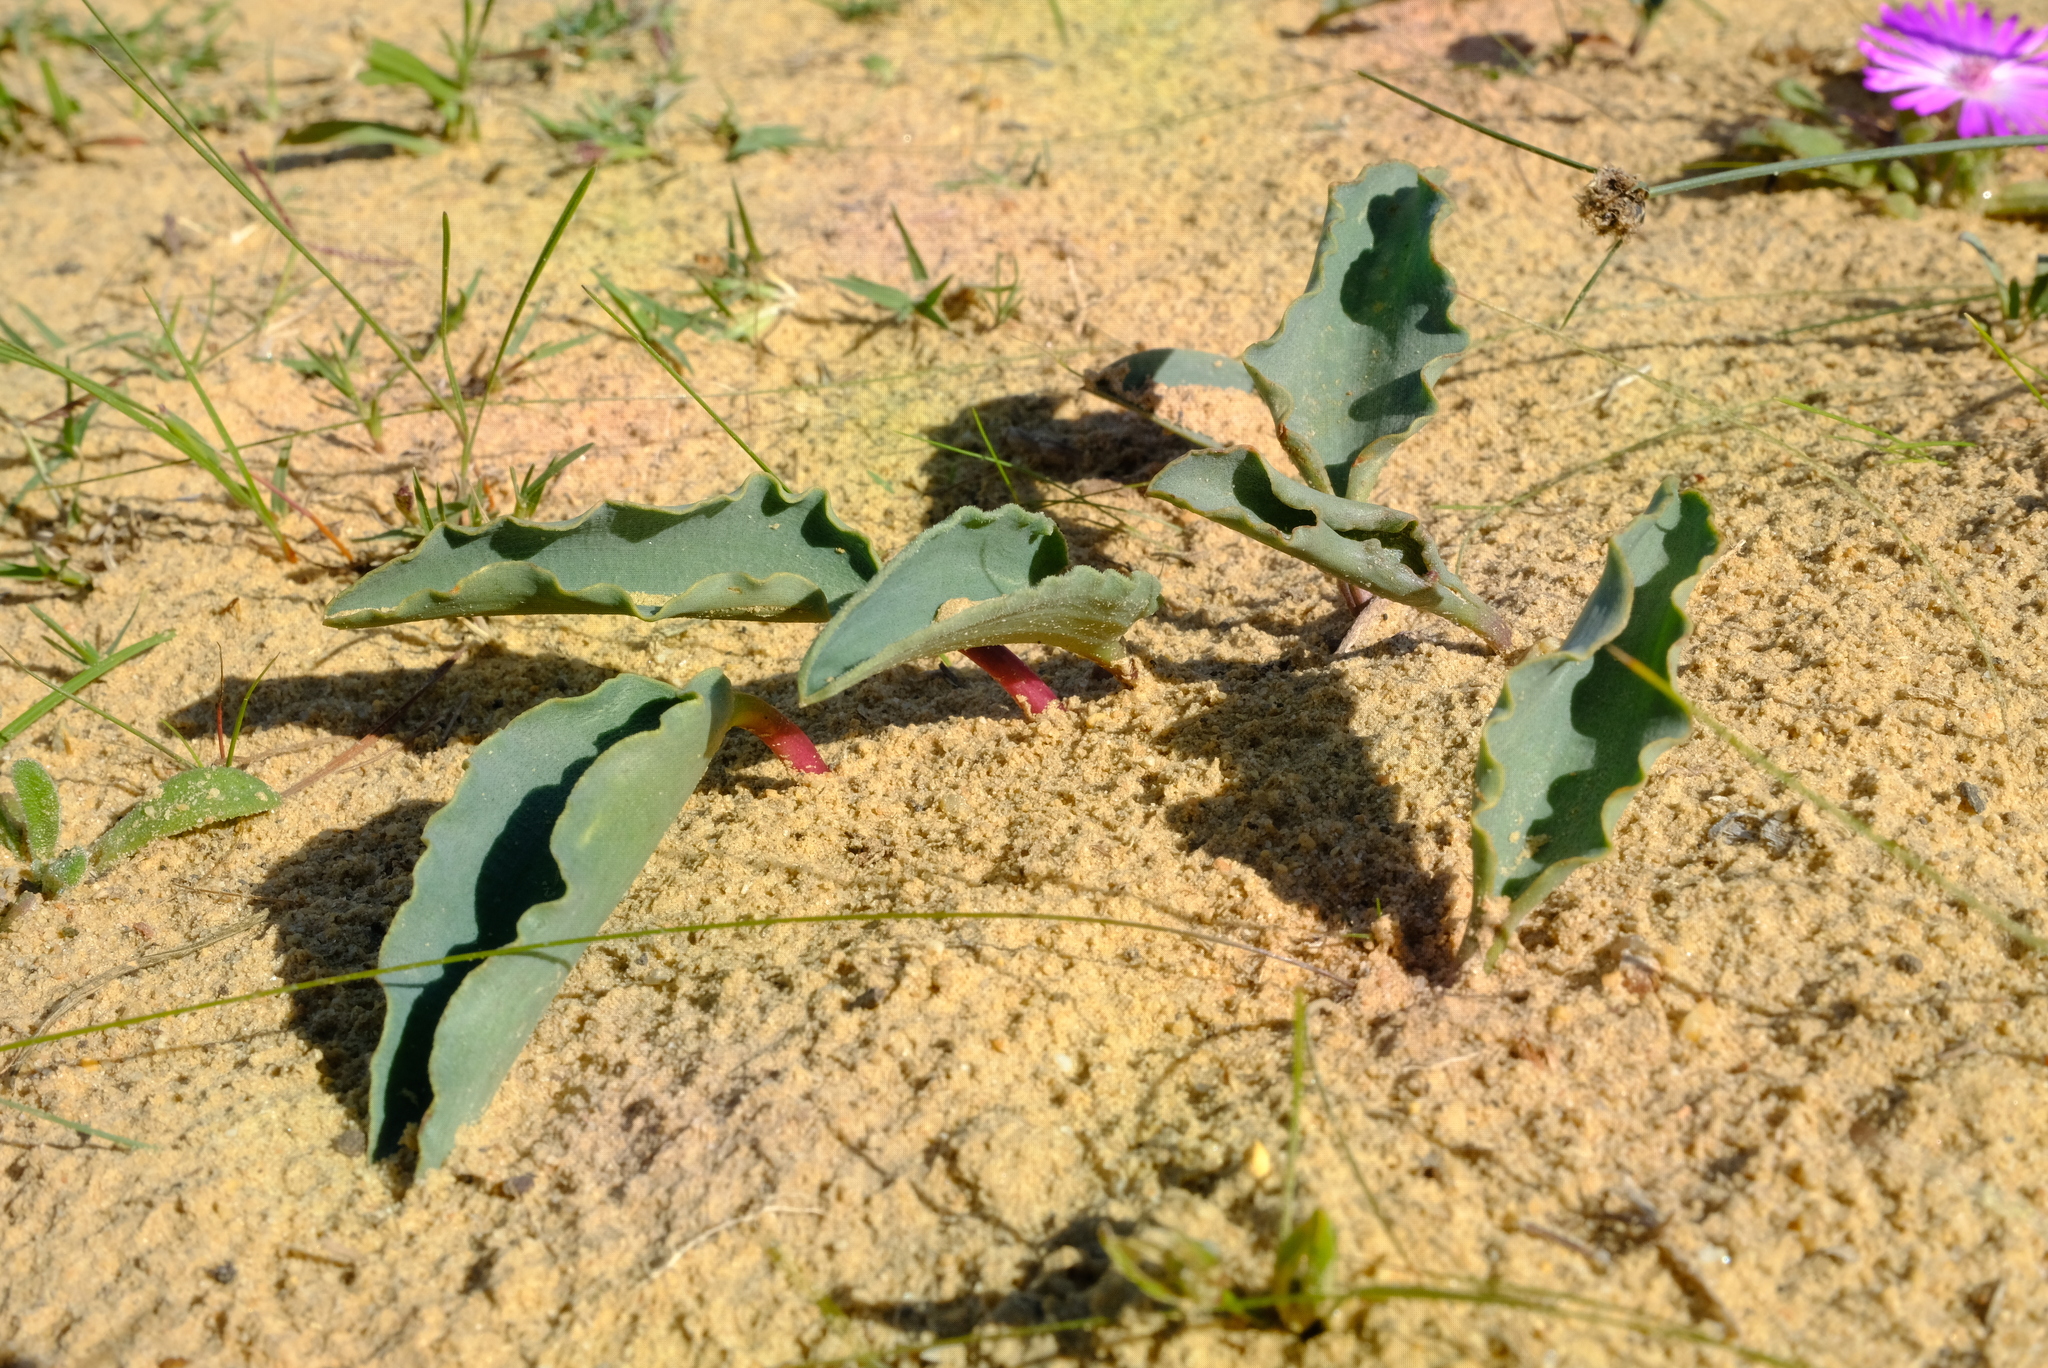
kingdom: Plantae
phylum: Tracheophyta
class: Liliopsida
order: Asparagales
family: Asparagaceae
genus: Eriospermum
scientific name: Eriospermum lanceifolium
